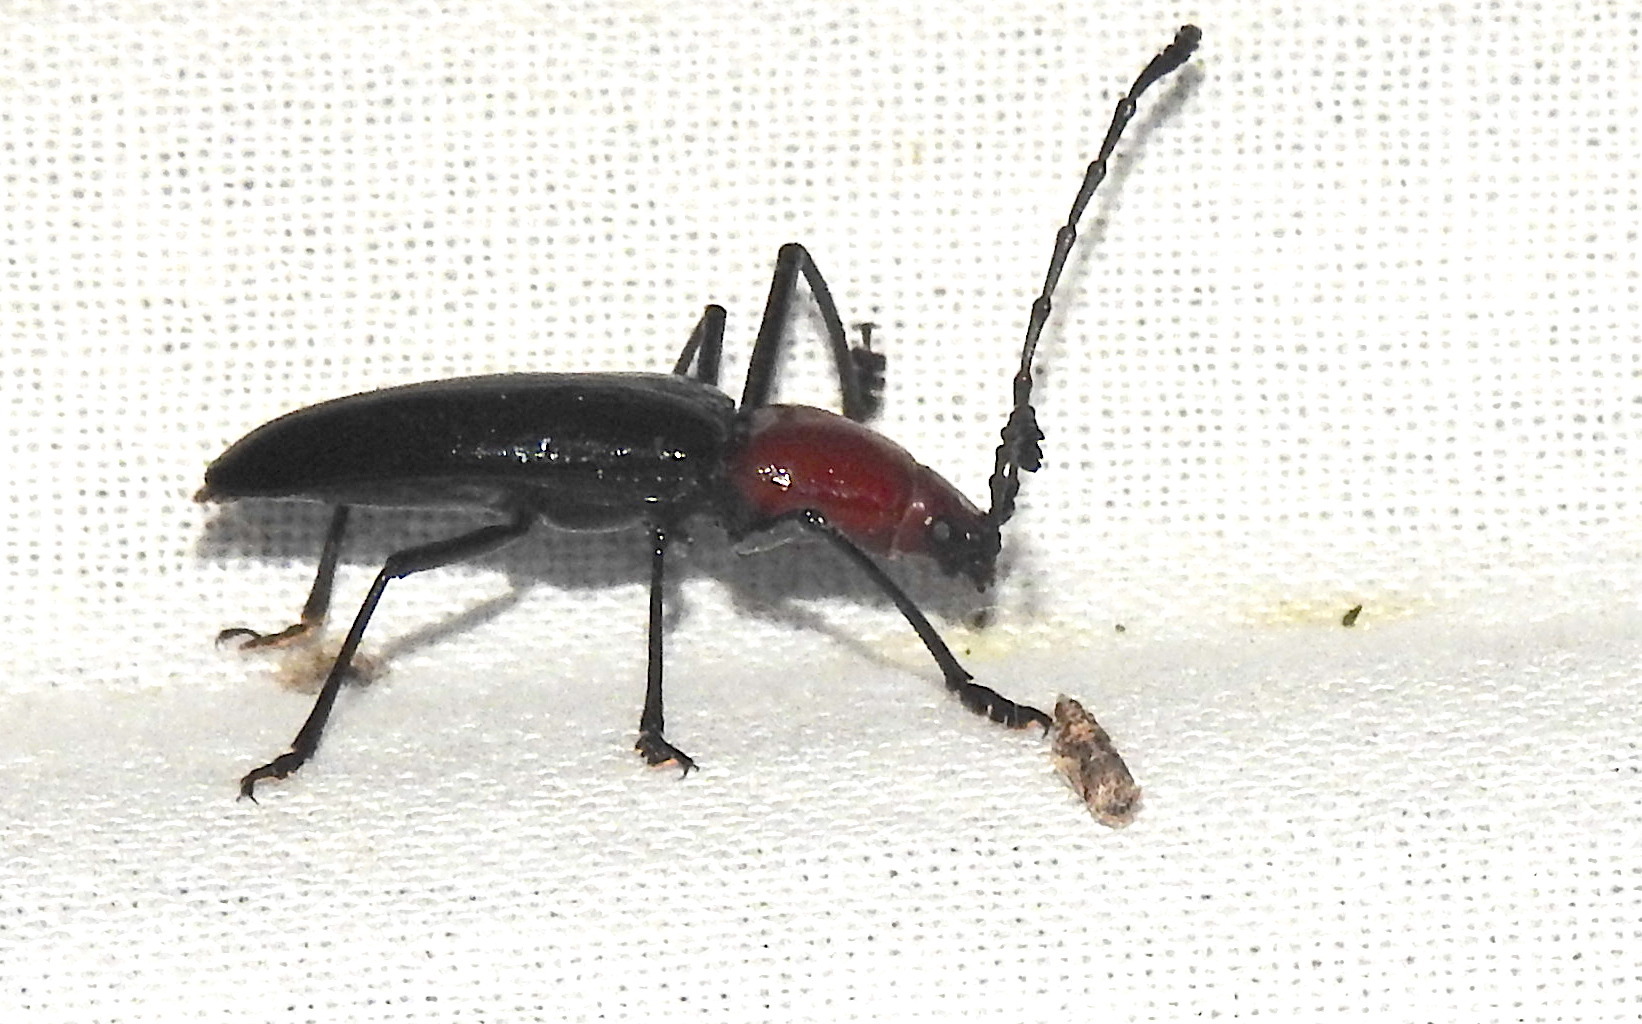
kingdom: Animalia
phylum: Arthropoda
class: Insecta
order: Coleoptera
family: Erotylidae
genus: Fatua
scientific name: Fatua
